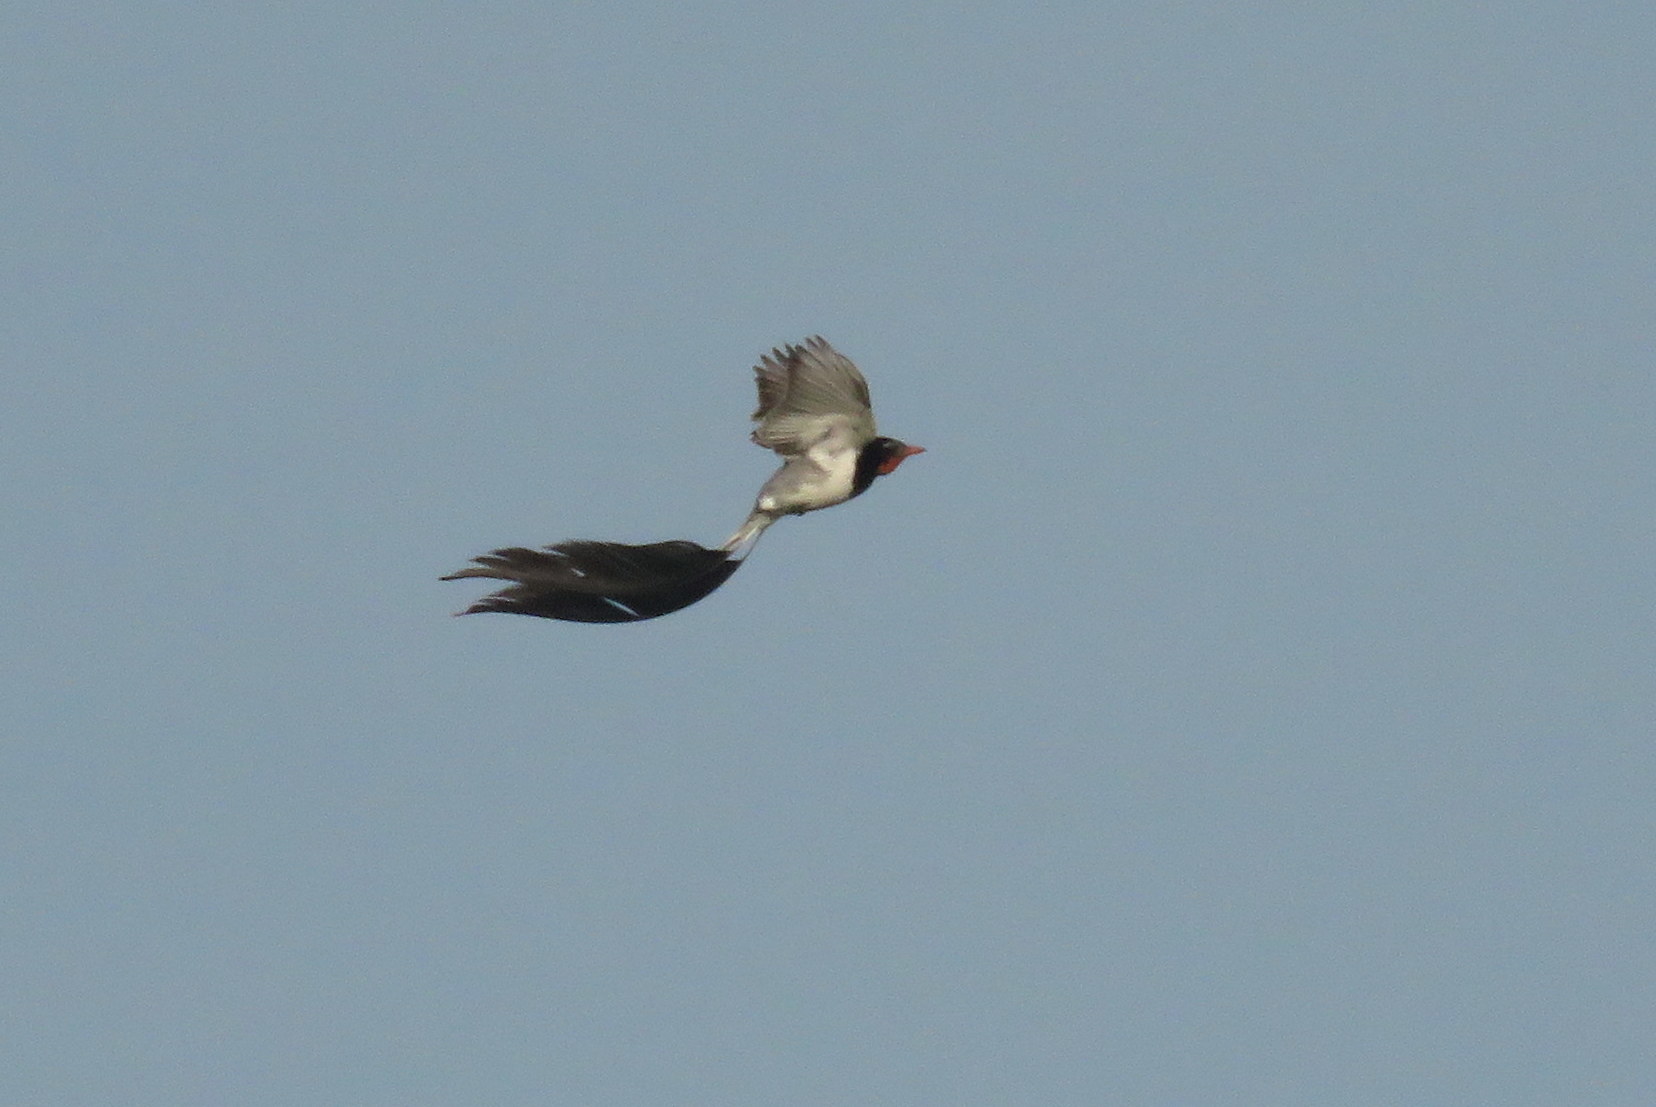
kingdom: Animalia
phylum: Chordata
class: Aves
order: Passeriformes
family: Tyrannidae
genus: Alectrurus
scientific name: Alectrurus risora
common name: Strange-tailed tyrant
